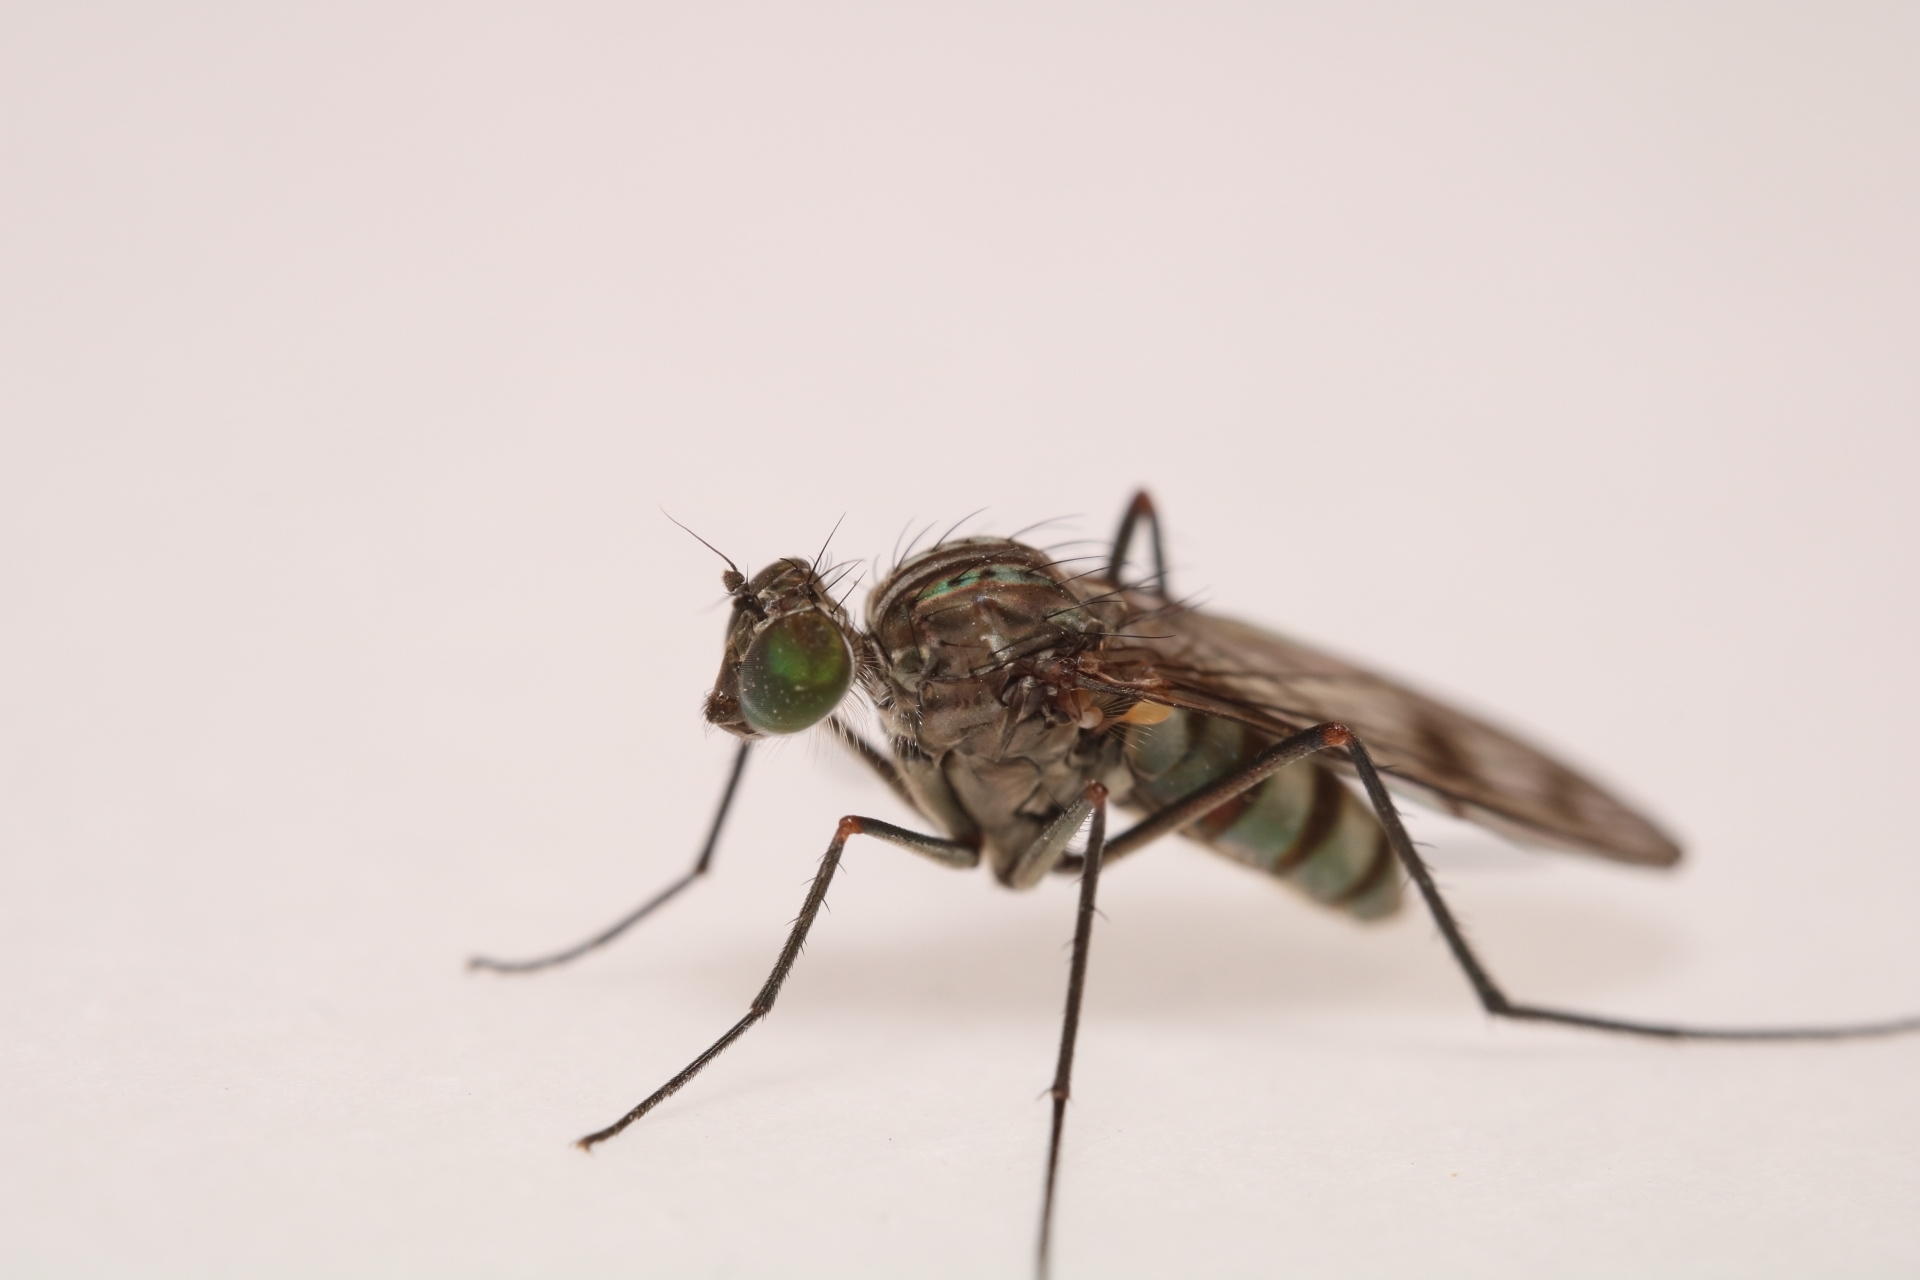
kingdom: Animalia
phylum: Arthropoda
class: Insecta
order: Diptera
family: Dolichopodidae
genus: Liancalus
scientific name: Liancalus genualis
